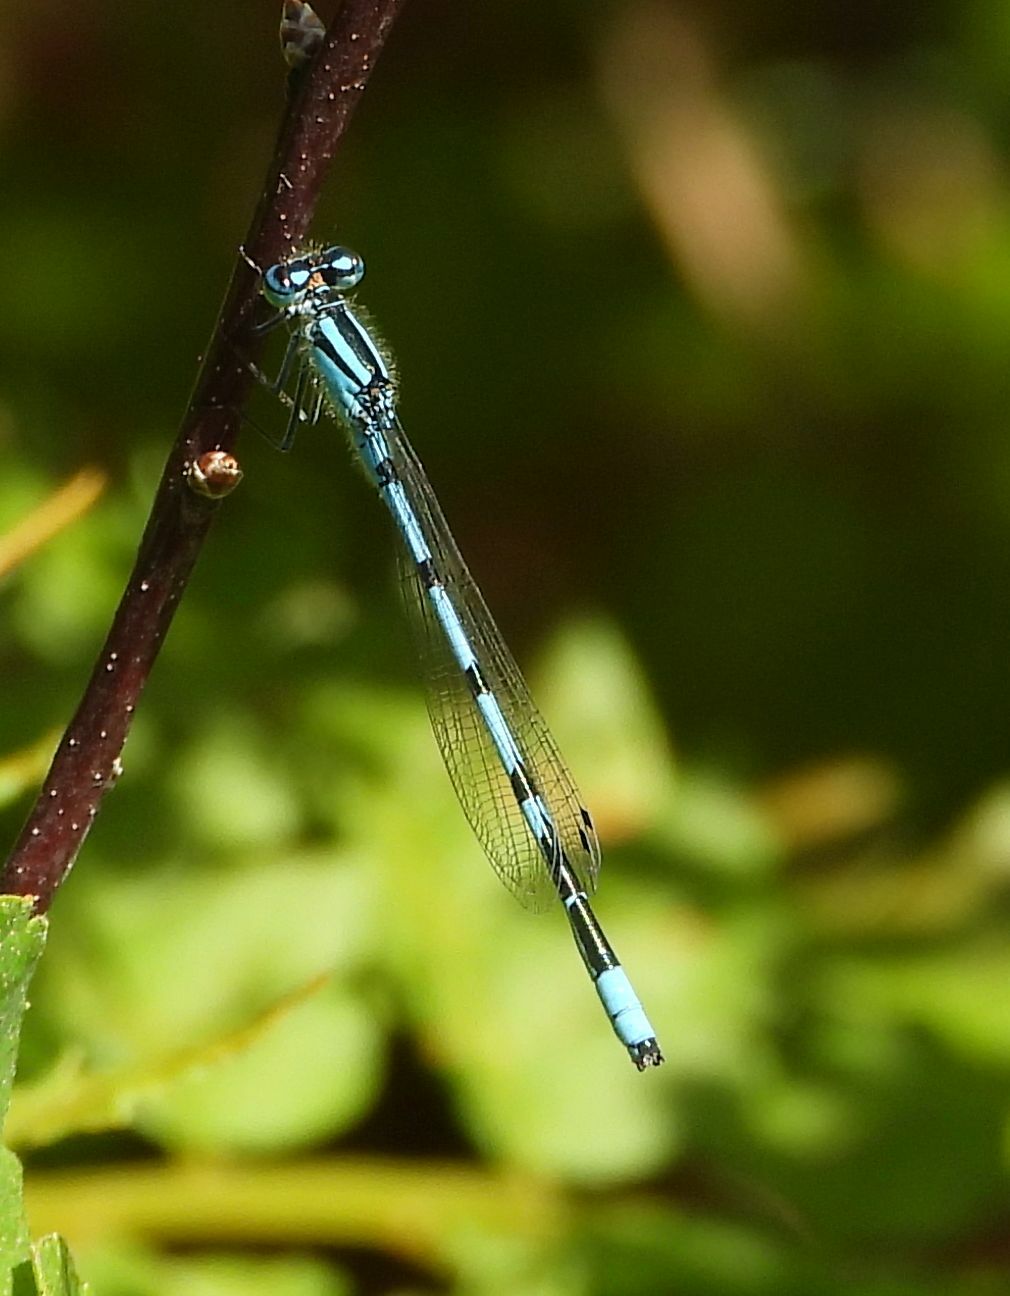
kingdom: Animalia
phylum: Arthropoda
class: Insecta
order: Odonata
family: Coenagrionidae
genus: Enallagma
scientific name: Enallagma ebrium
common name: Marsh bluet
